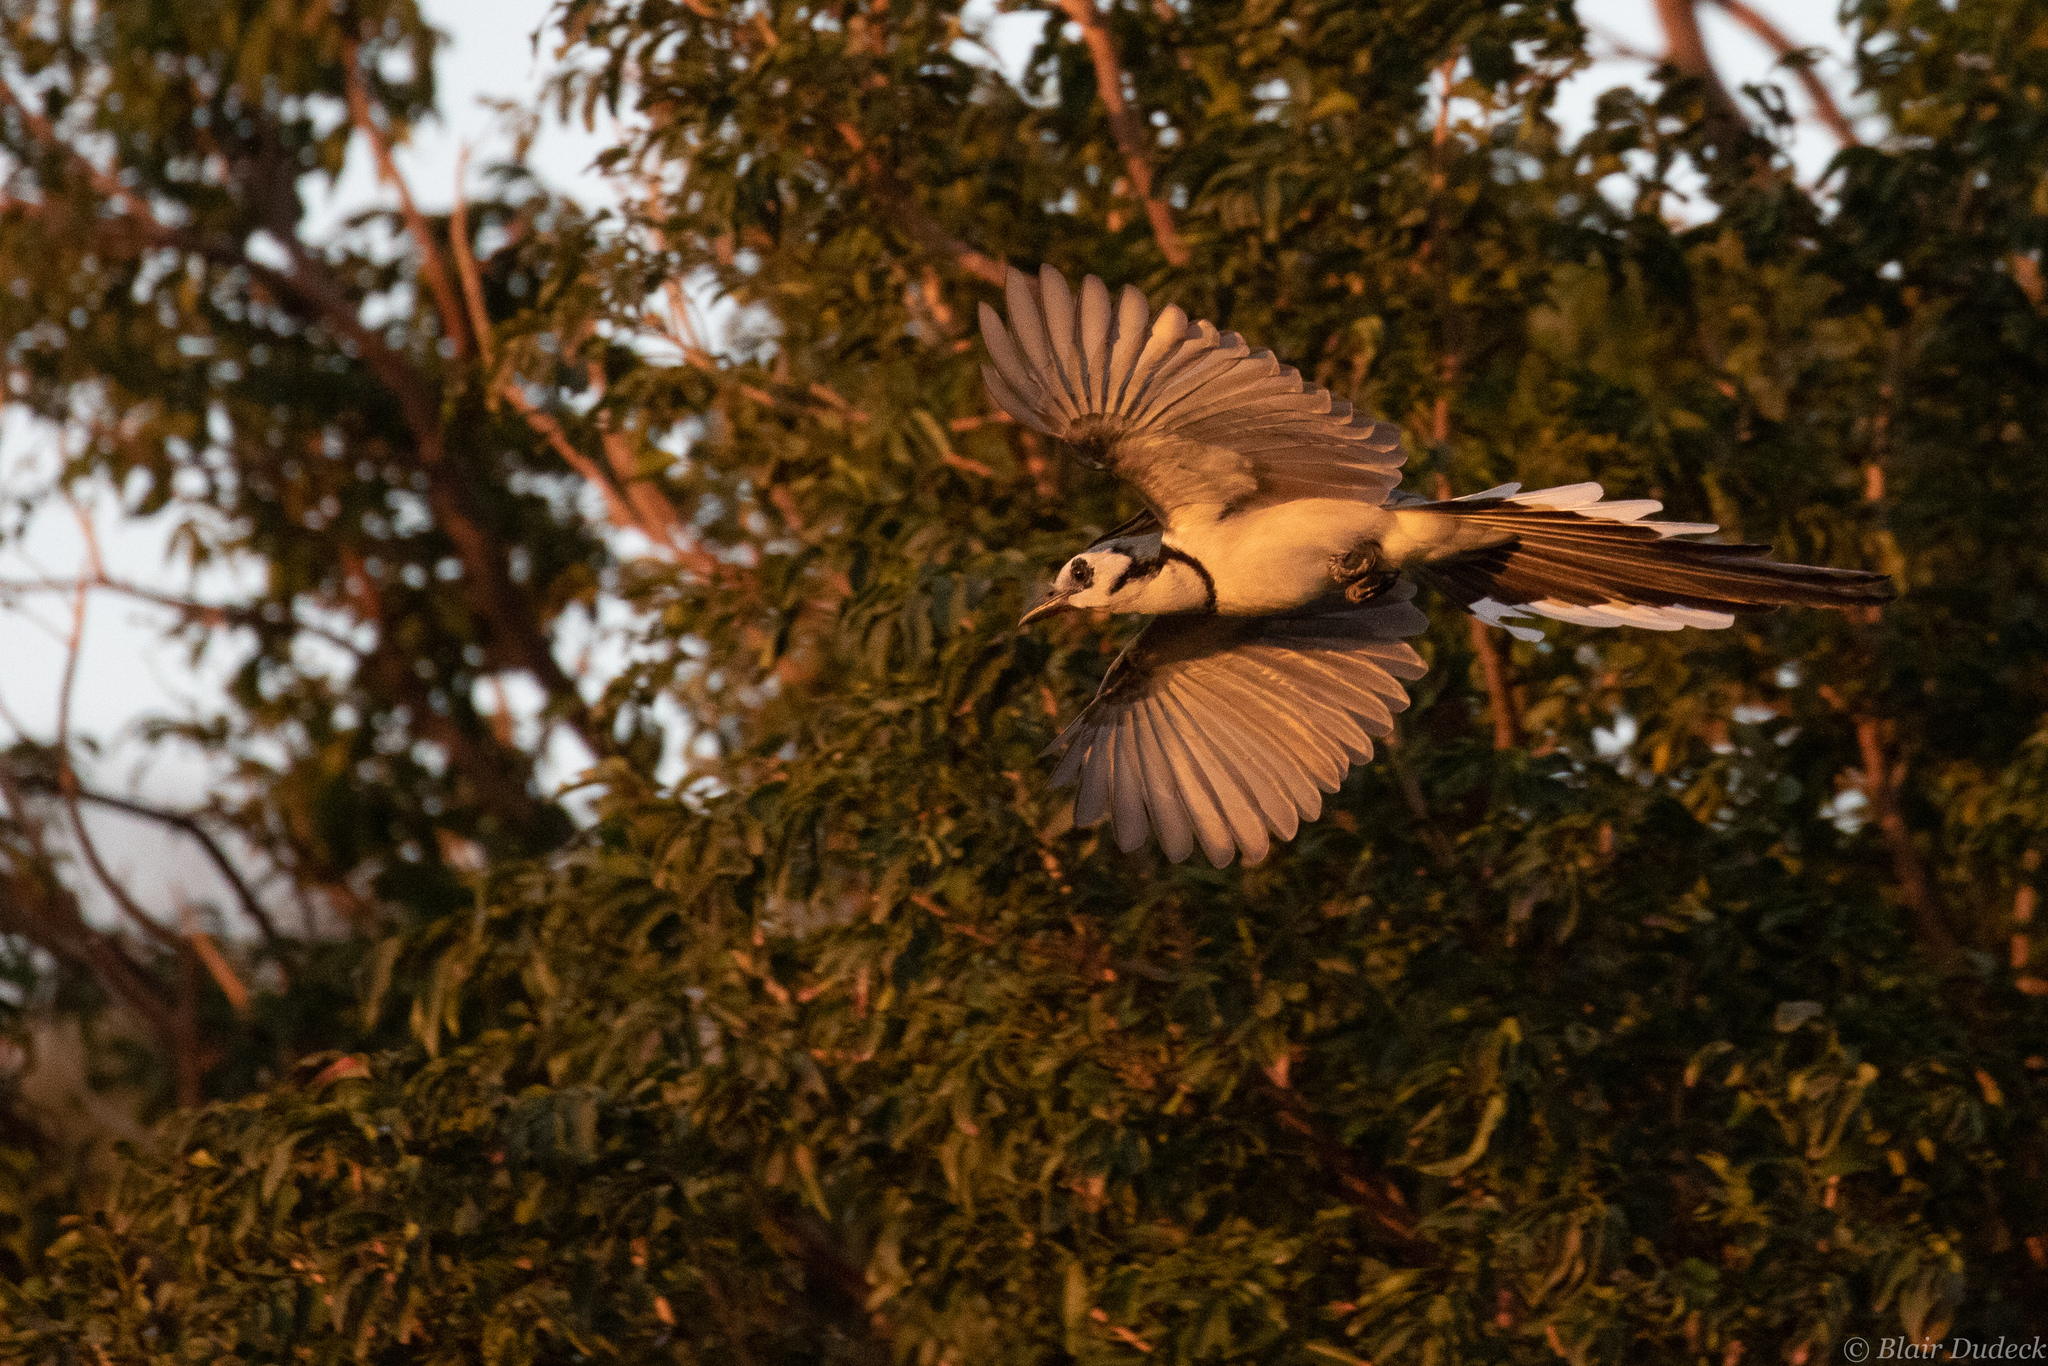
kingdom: Animalia
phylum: Chordata
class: Aves
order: Passeriformes
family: Corvidae
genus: Calocitta
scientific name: Calocitta formosa
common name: White-throated magpie-jay
